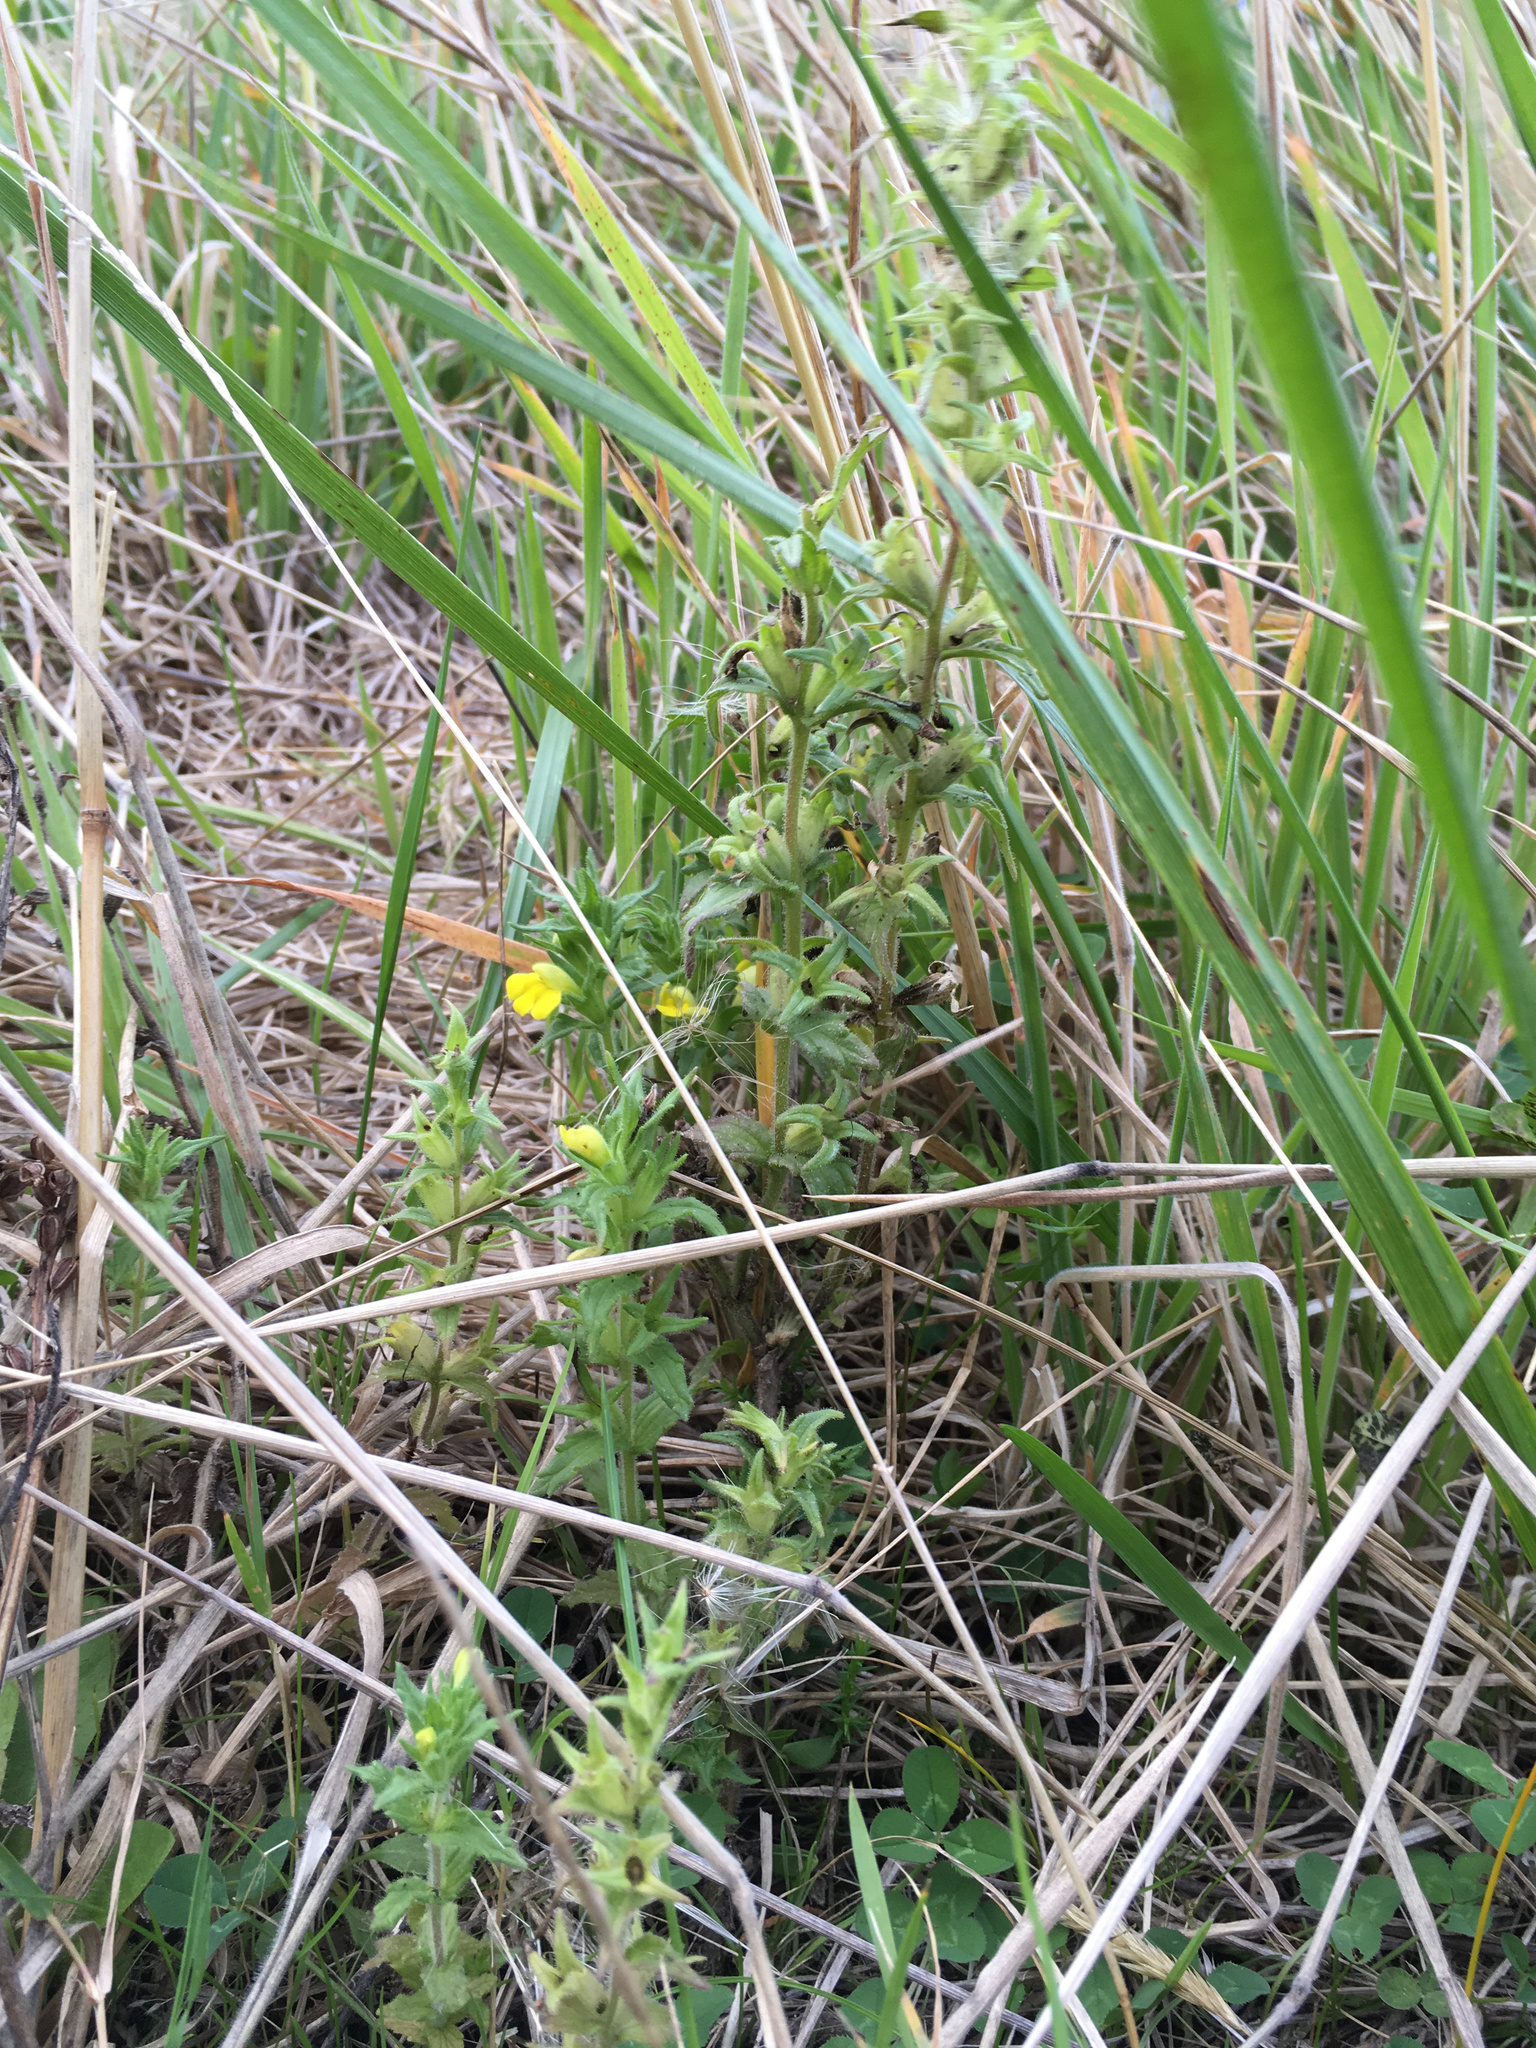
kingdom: Plantae
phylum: Tracheophyta
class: Magnoliopsida
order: Lamiales
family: Orobanchaceae
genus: Bellardia
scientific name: Bellardia viscosa
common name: Sticky parentucellia
